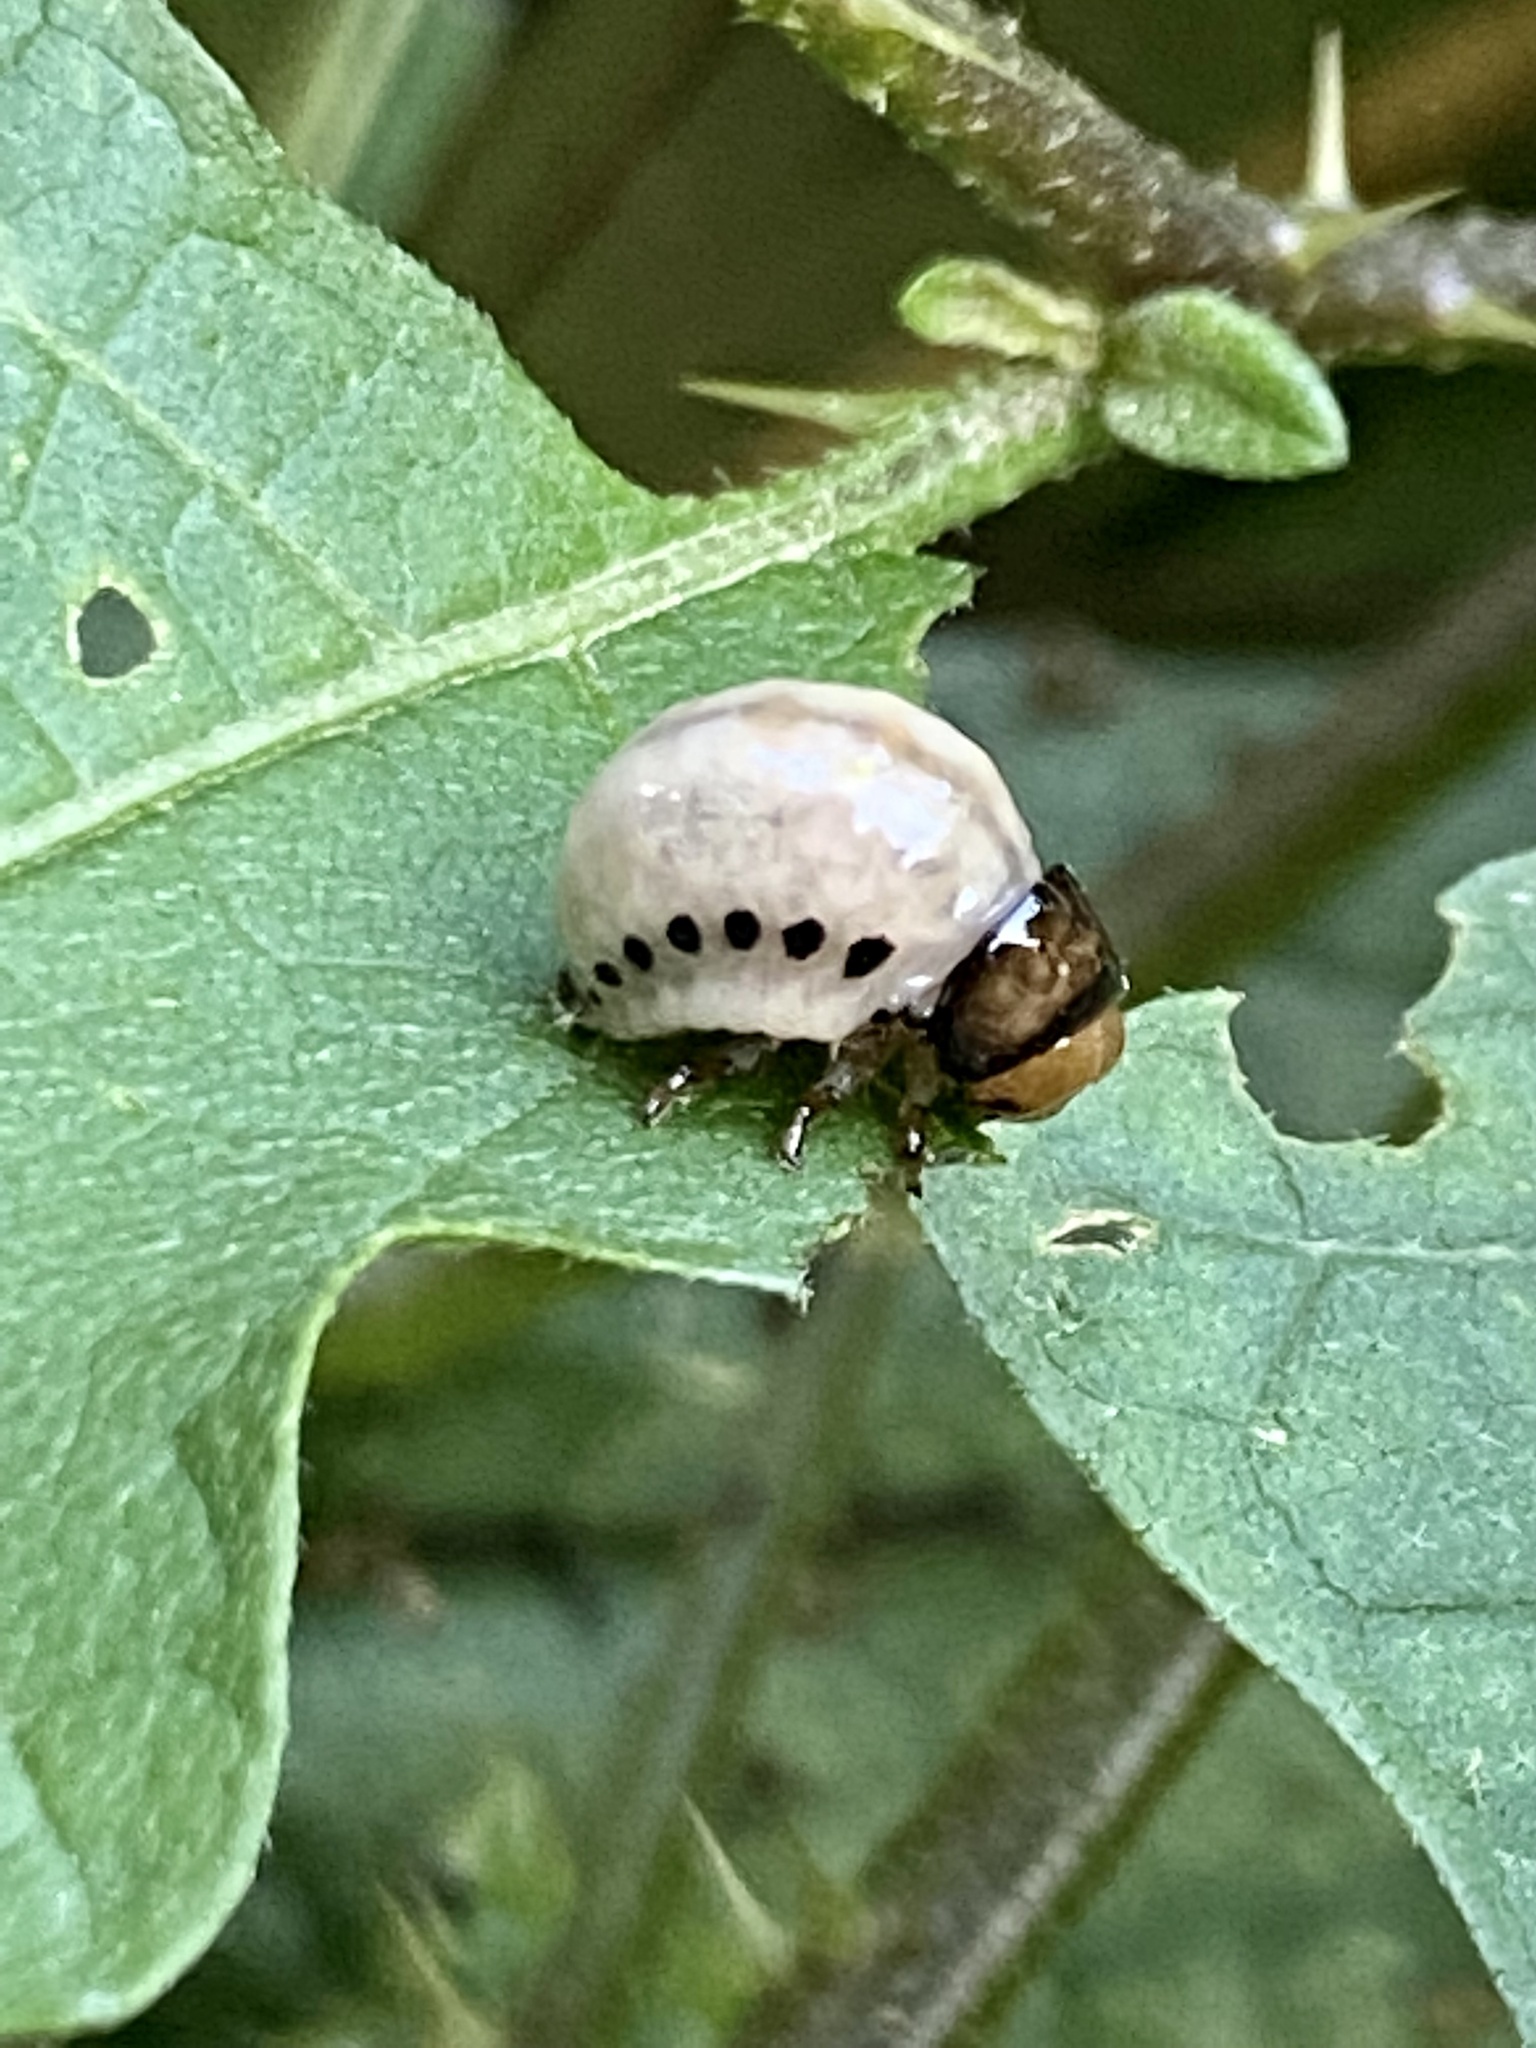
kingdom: Animalia
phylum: Arthropoda
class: Insecta
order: Coleoptera
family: Chrysomelidae
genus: Leptinotarsa
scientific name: Leptinotarsa juncta
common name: False potato beetle
